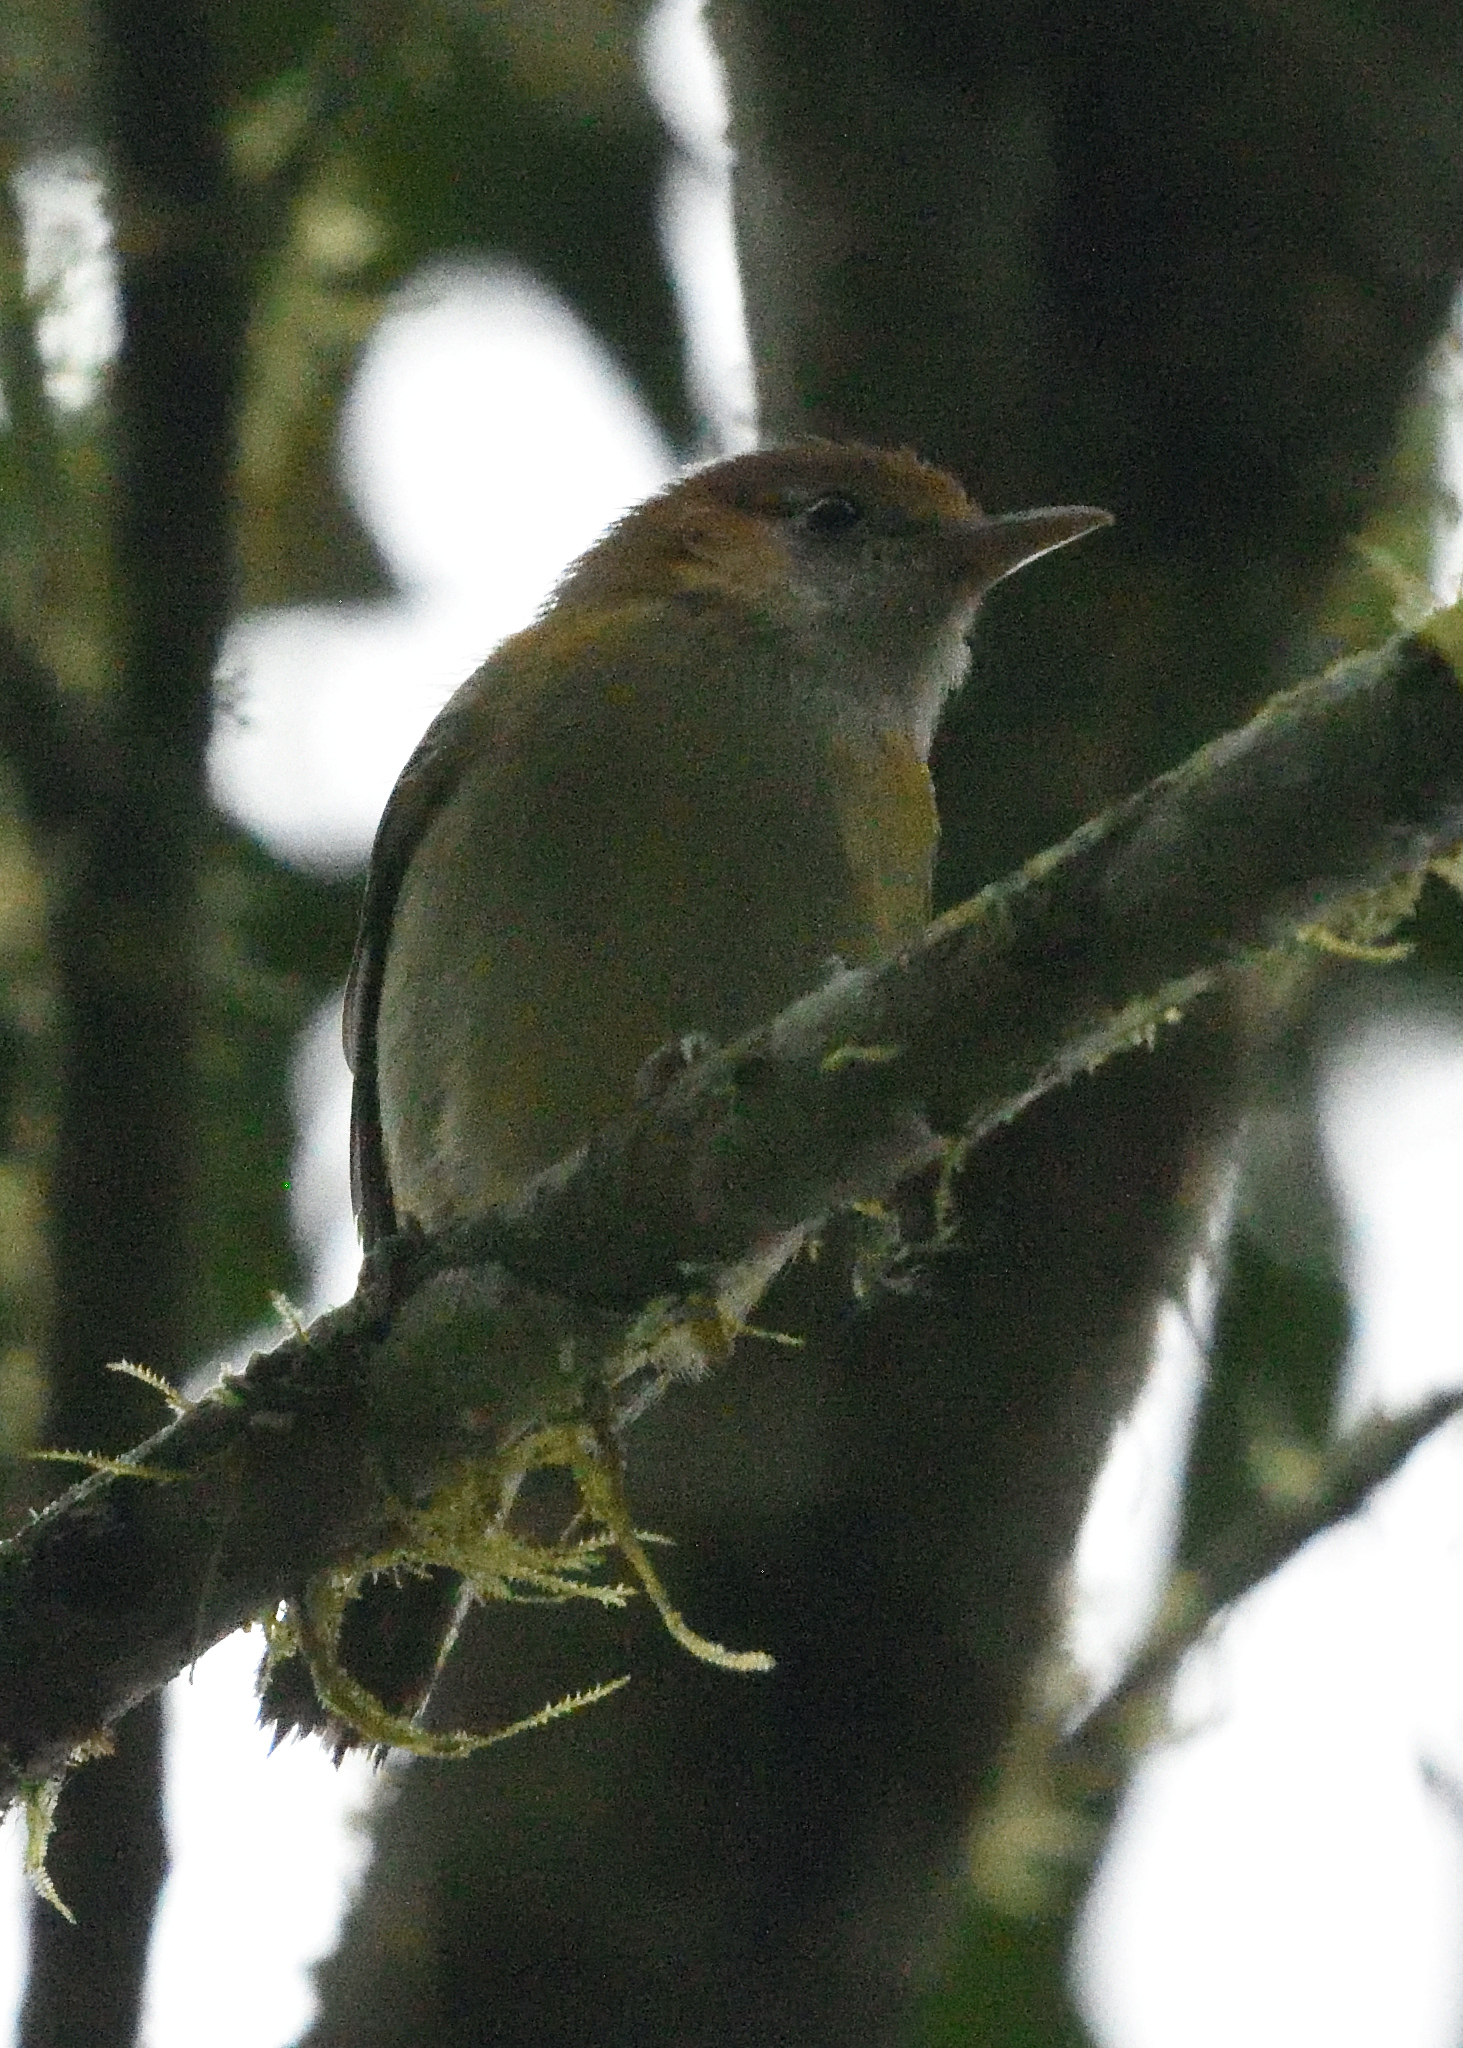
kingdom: Animalia
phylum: Chordata
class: Aves
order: Passeriformes
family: Vireonidae
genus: Hylophilus
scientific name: Hylophilus semibrunneus
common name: Rufous-naped greenlet
